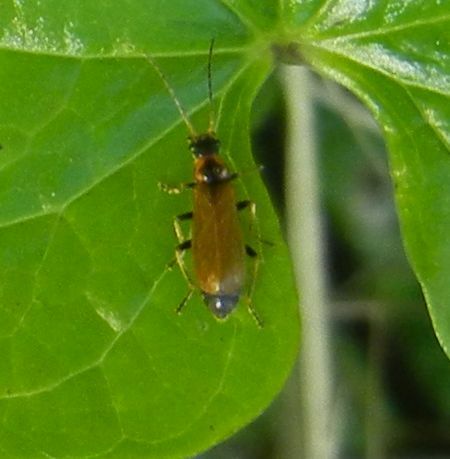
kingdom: Animalia
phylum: Arthropoda
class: Insecta
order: Coleoptera
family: Cantharidae
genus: Rhagonycha
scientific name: Rhagonycha nigriventris
